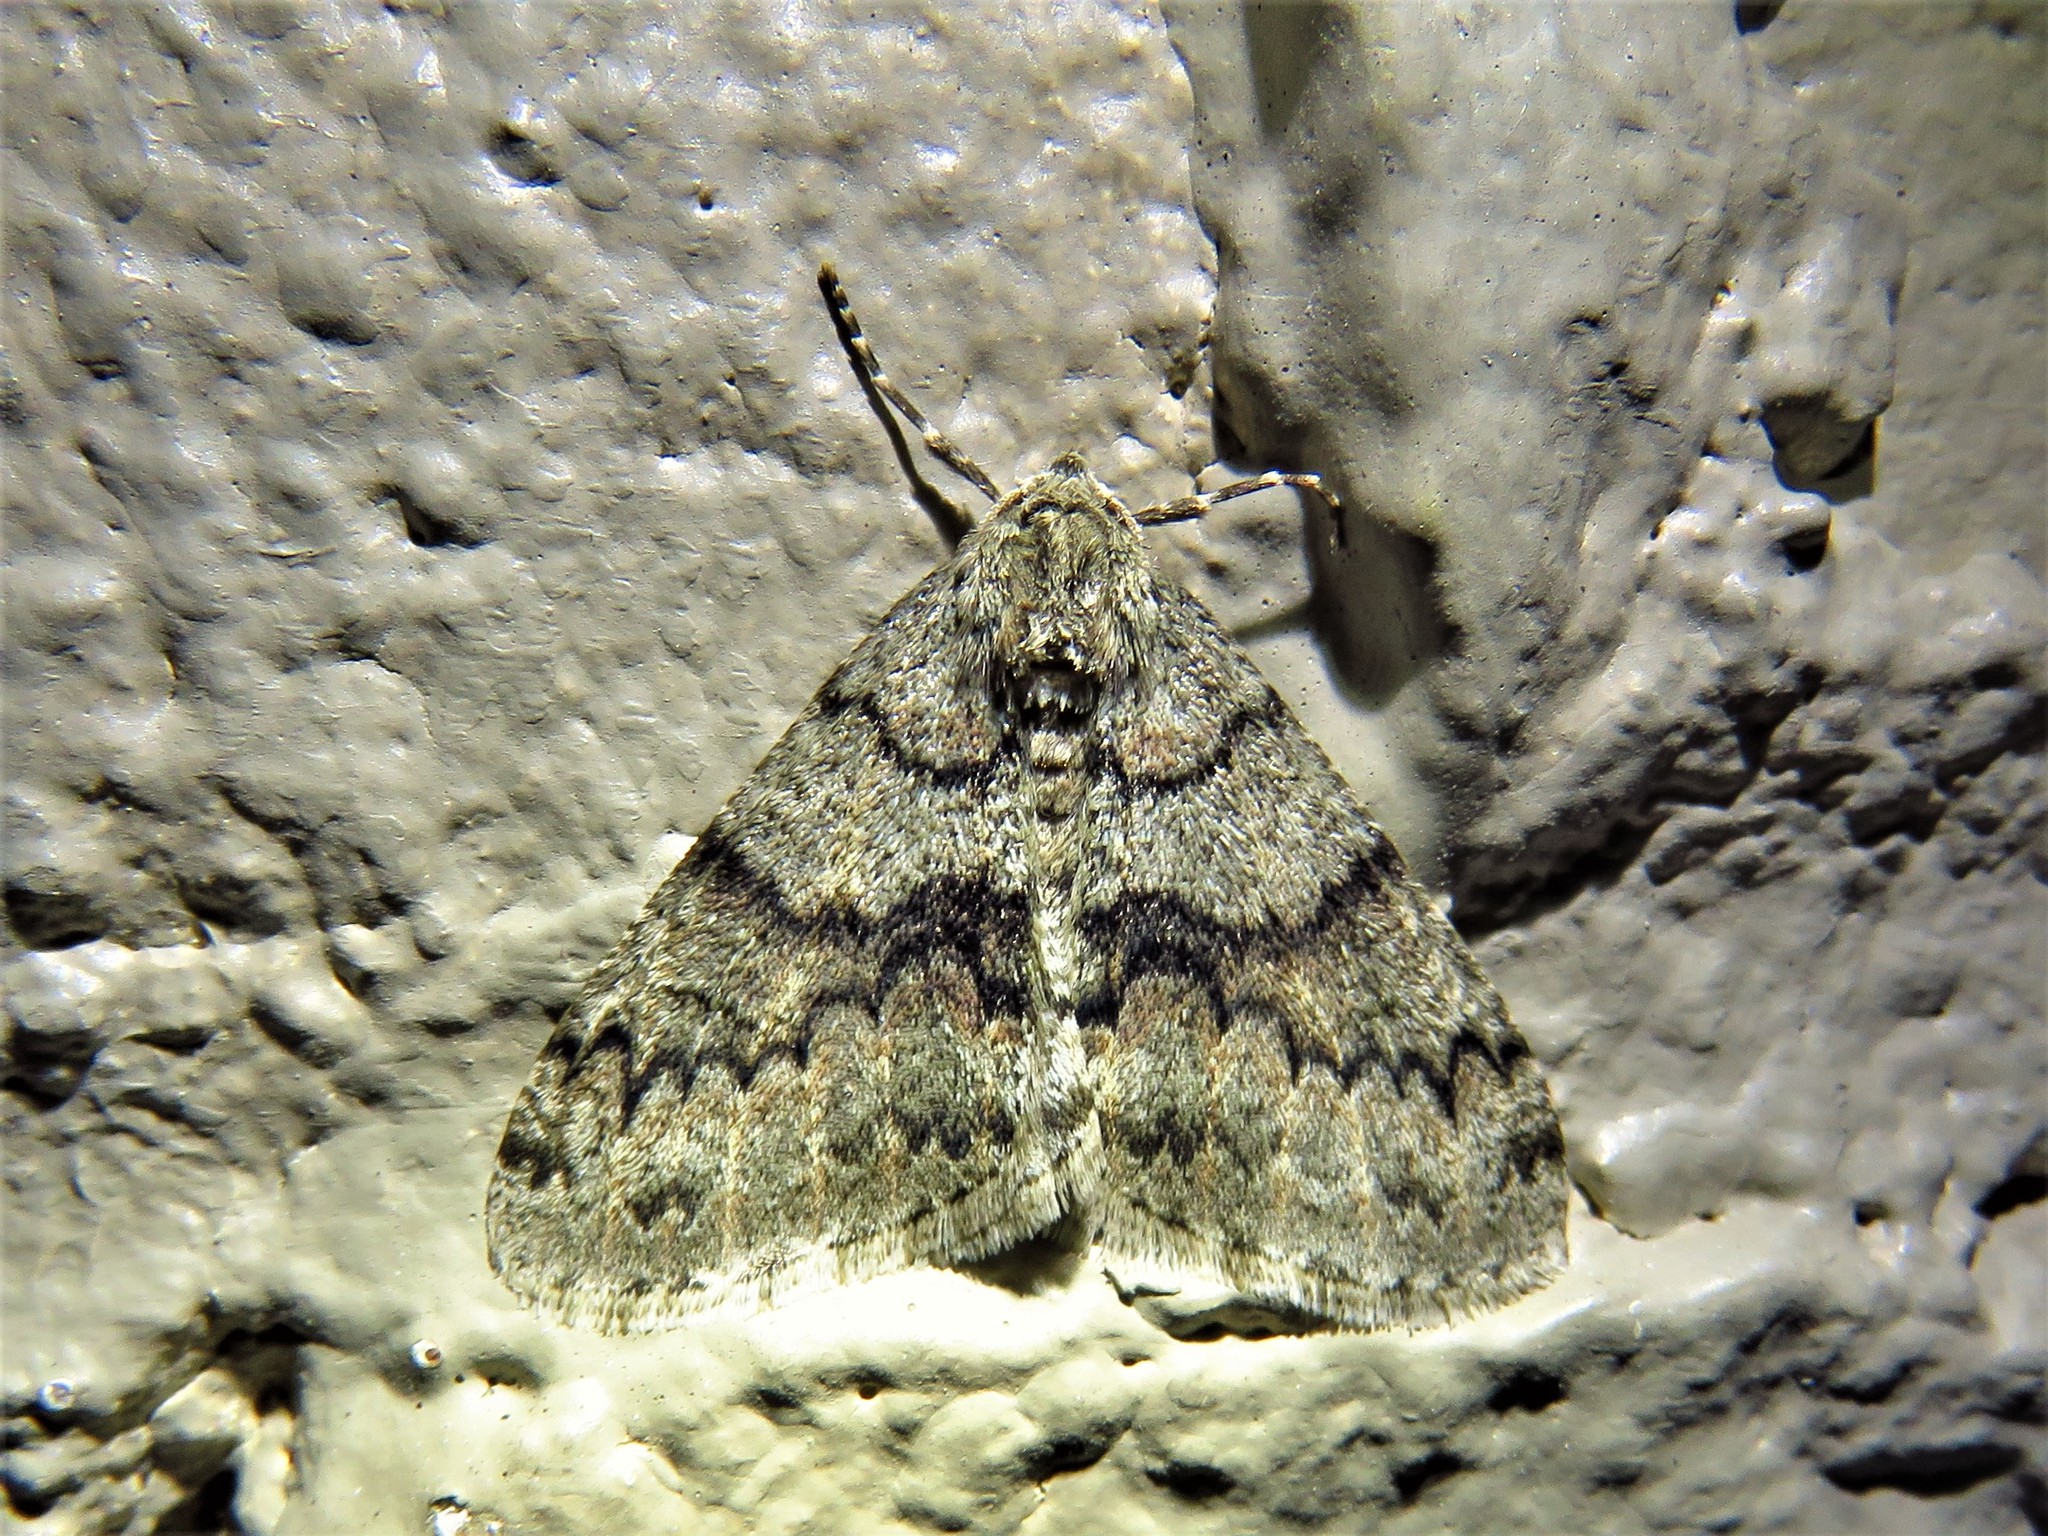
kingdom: Animalia
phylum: Arthropoda
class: Insecta
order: Lepidoptera
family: Geometridae
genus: Phigalia
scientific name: Phigalia denticulata
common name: Toothed phigalia
